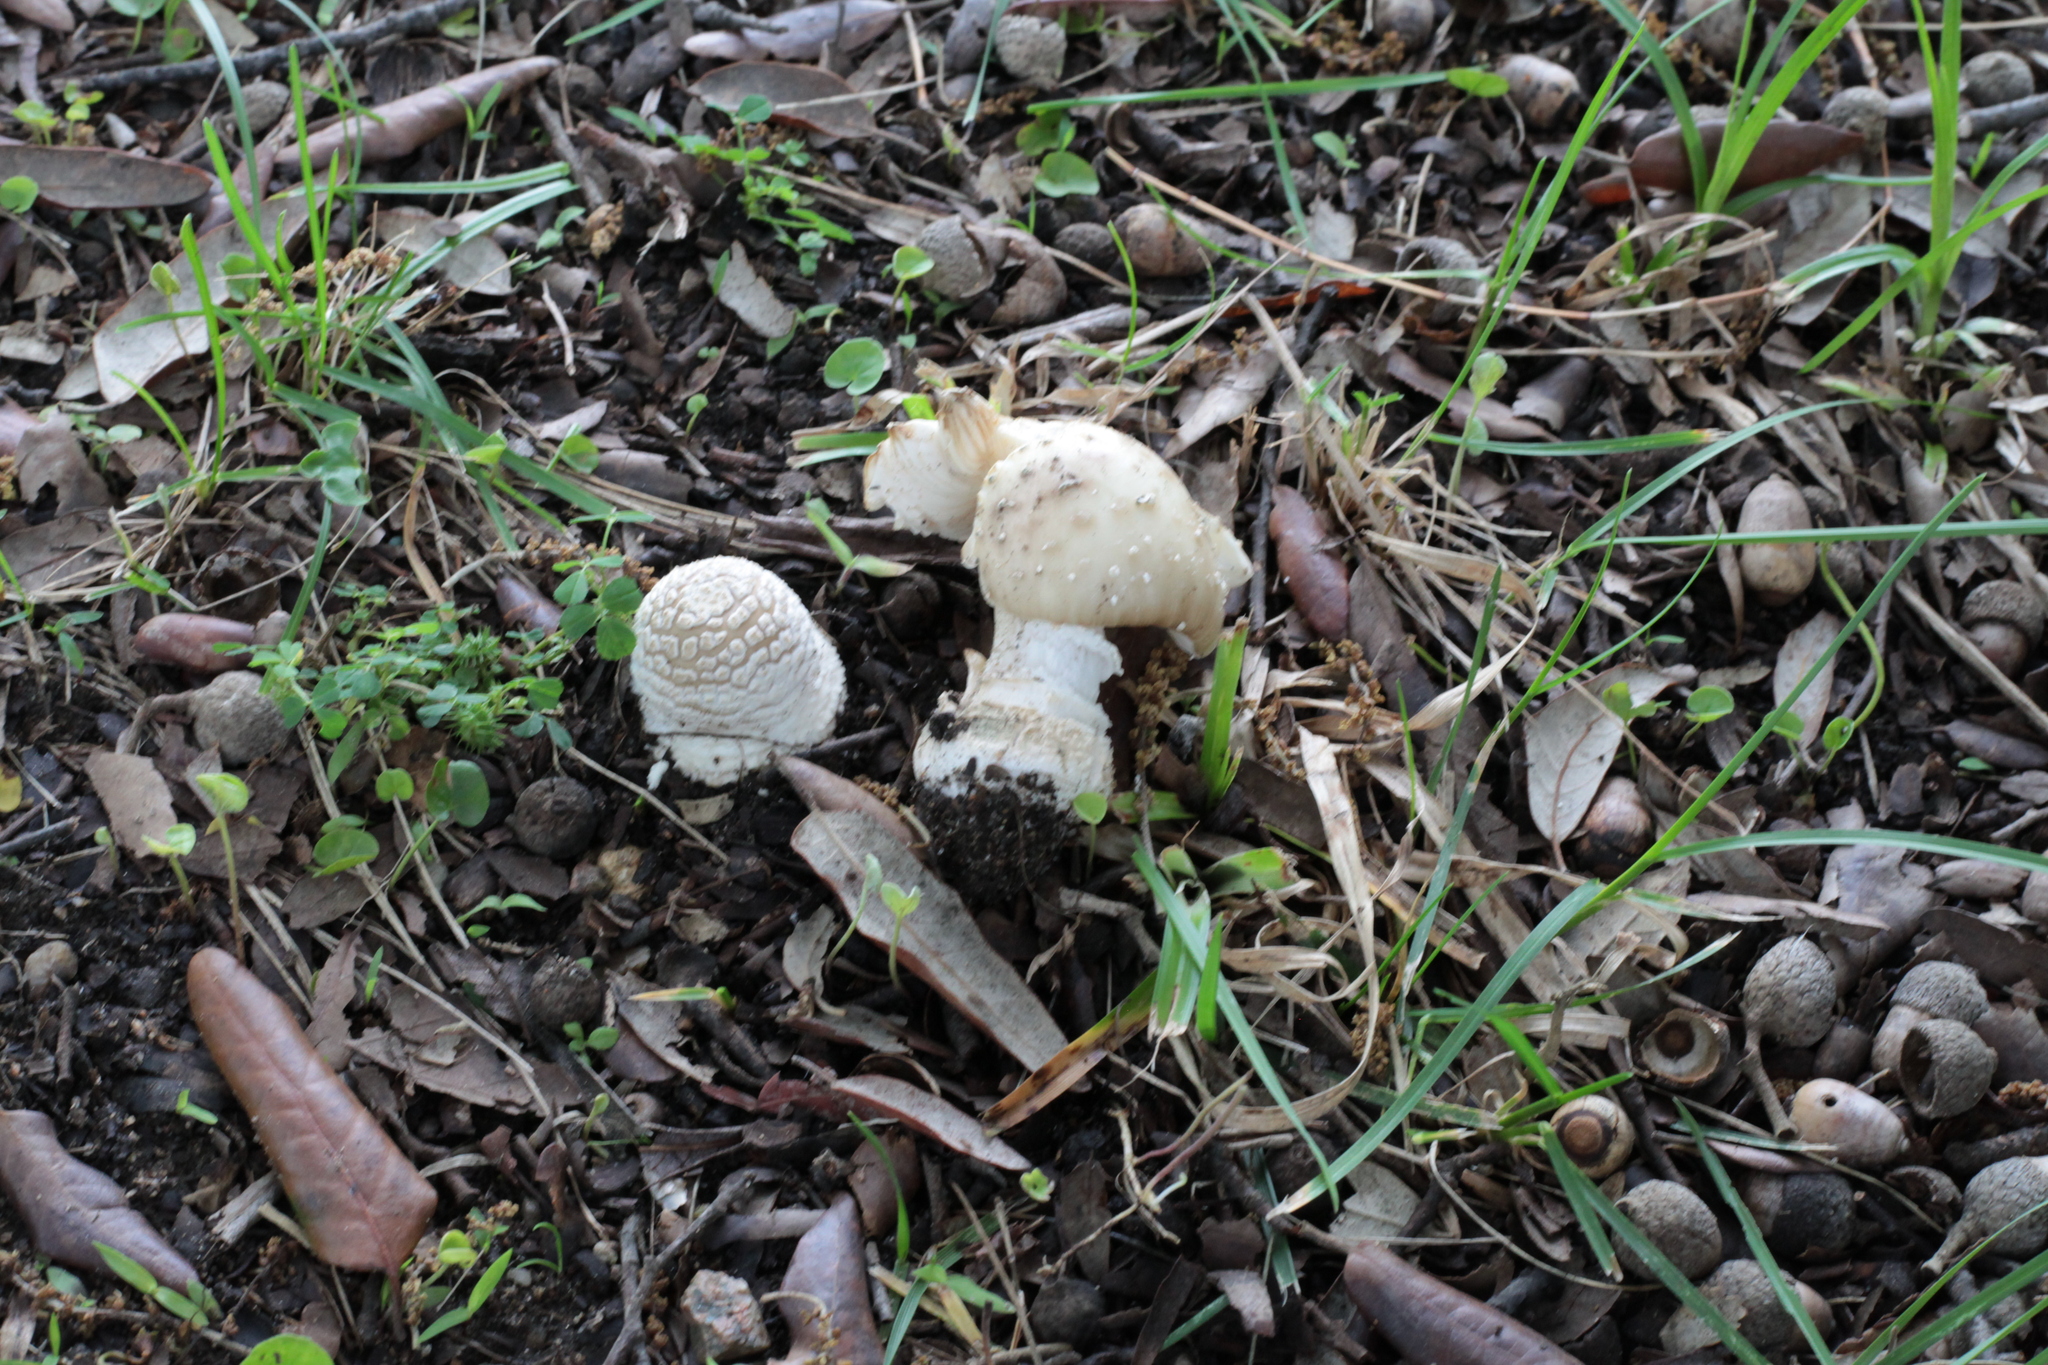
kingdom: Fungi
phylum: Basidiomycota
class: Agaricomycetes
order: Agaricales
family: Amanitaceae
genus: Amanita
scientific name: Amanita pantherina
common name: Panthercap
